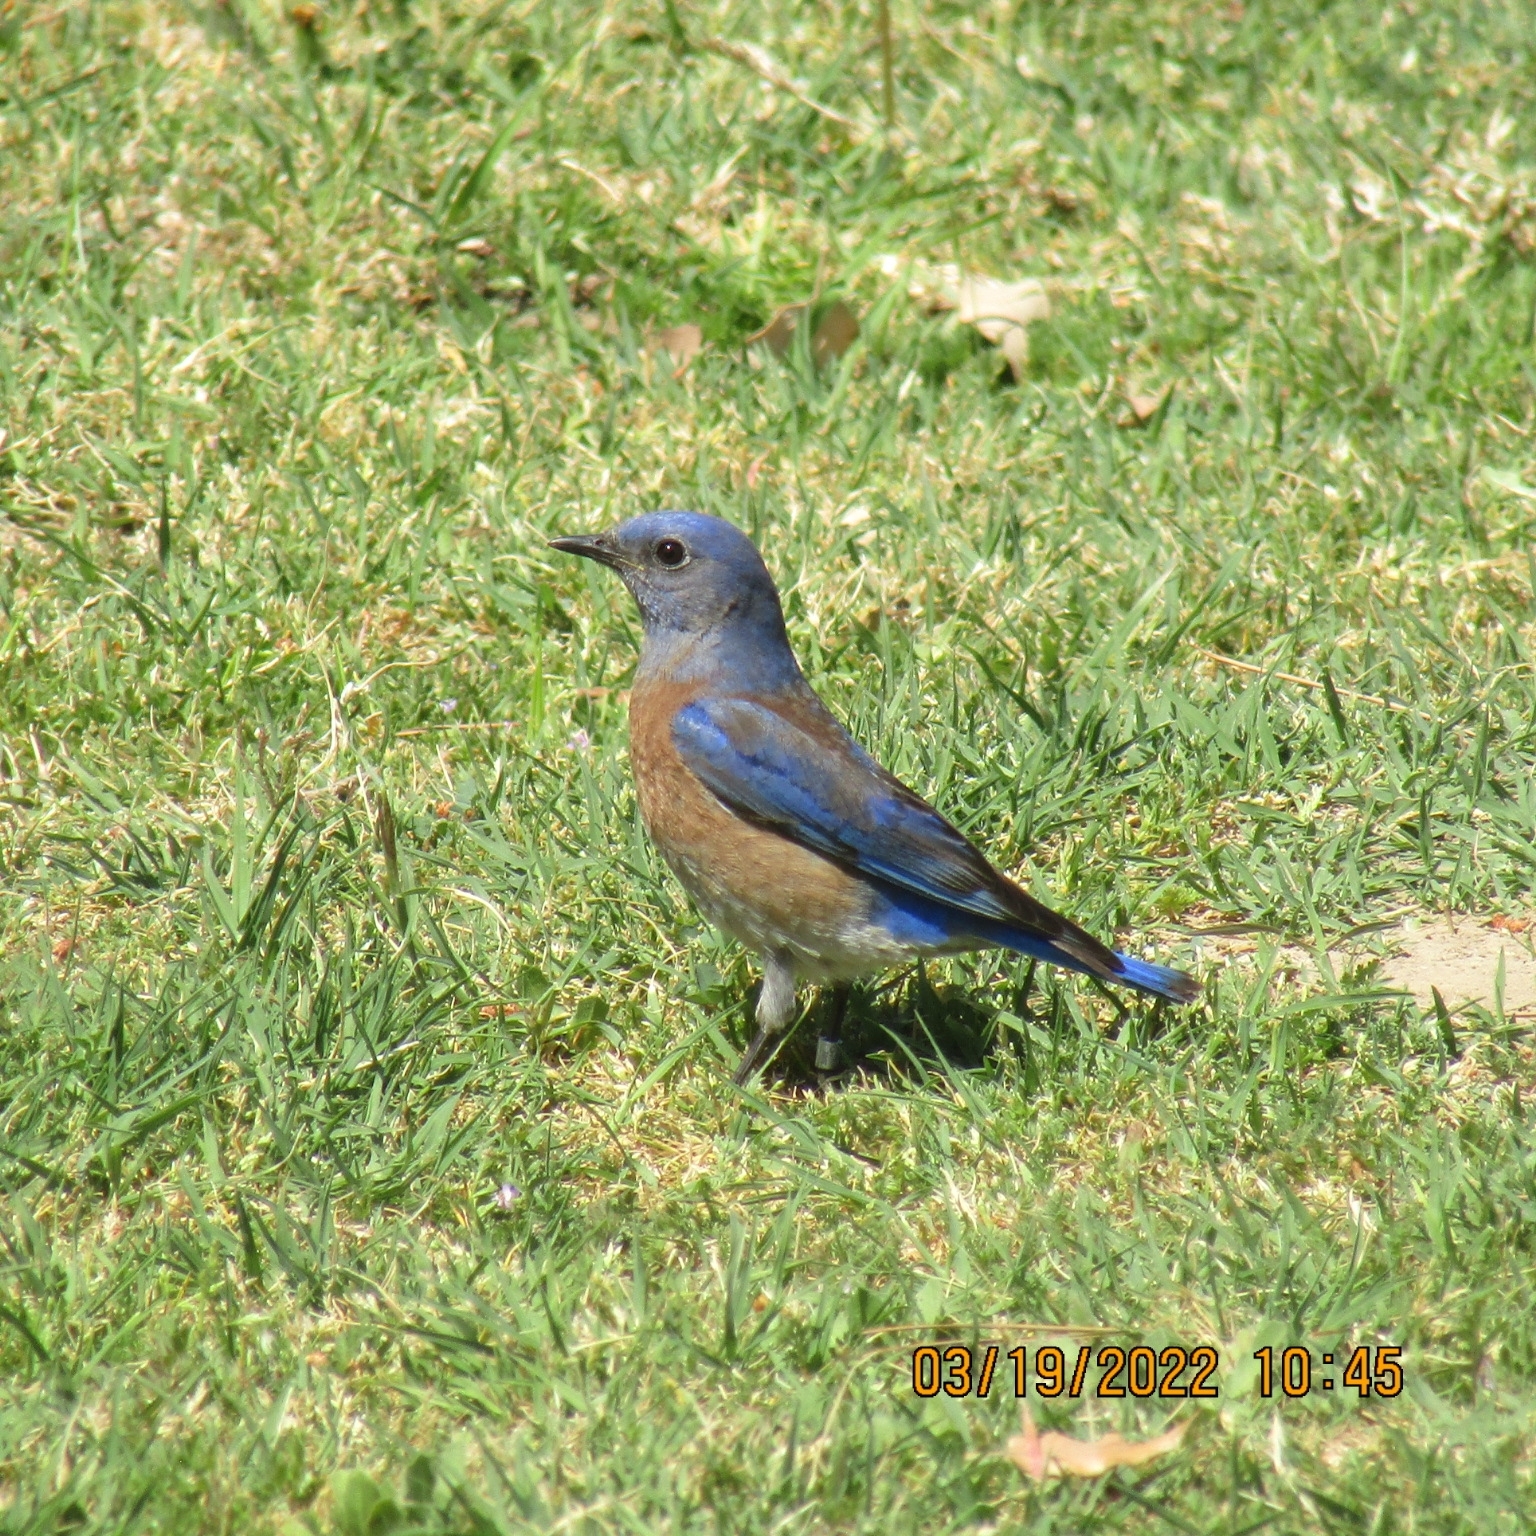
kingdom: Animalia
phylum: Chordata
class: Aves
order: Passeriformes
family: Turdidae
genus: Sialia
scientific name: Sialia mexicana
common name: Western bluebird
